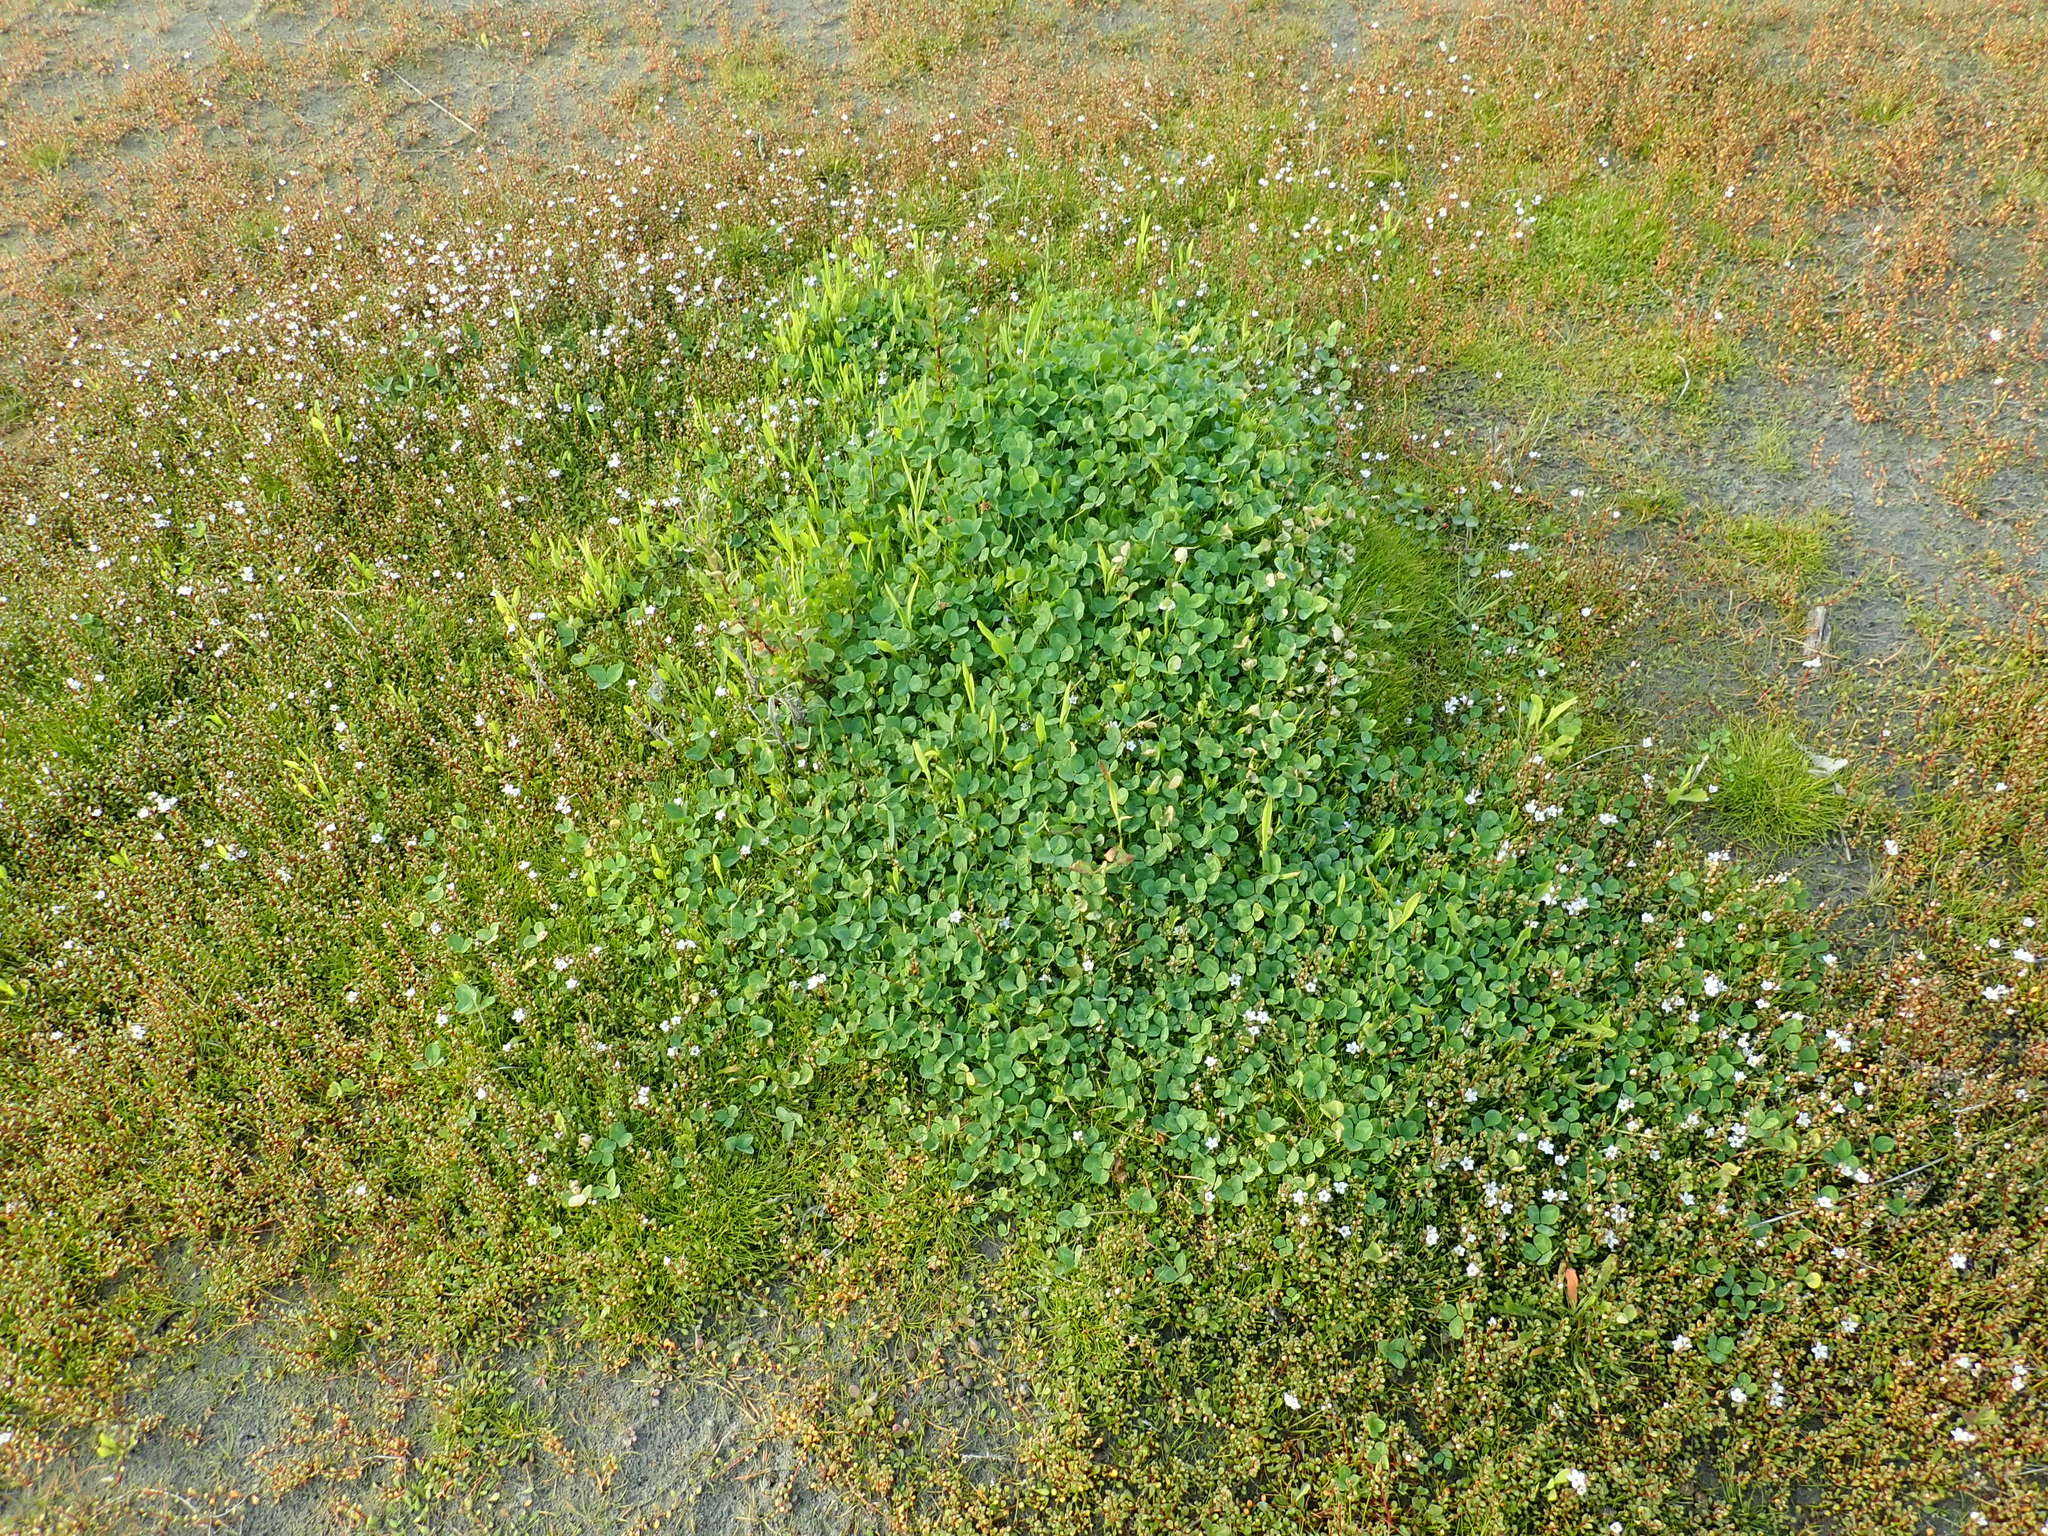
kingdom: Plantae
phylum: Tracheophyta
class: Magnoliopsida
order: Fabales
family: Fabaceae
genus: Trifolium
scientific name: Trifolium repens
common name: White clover
